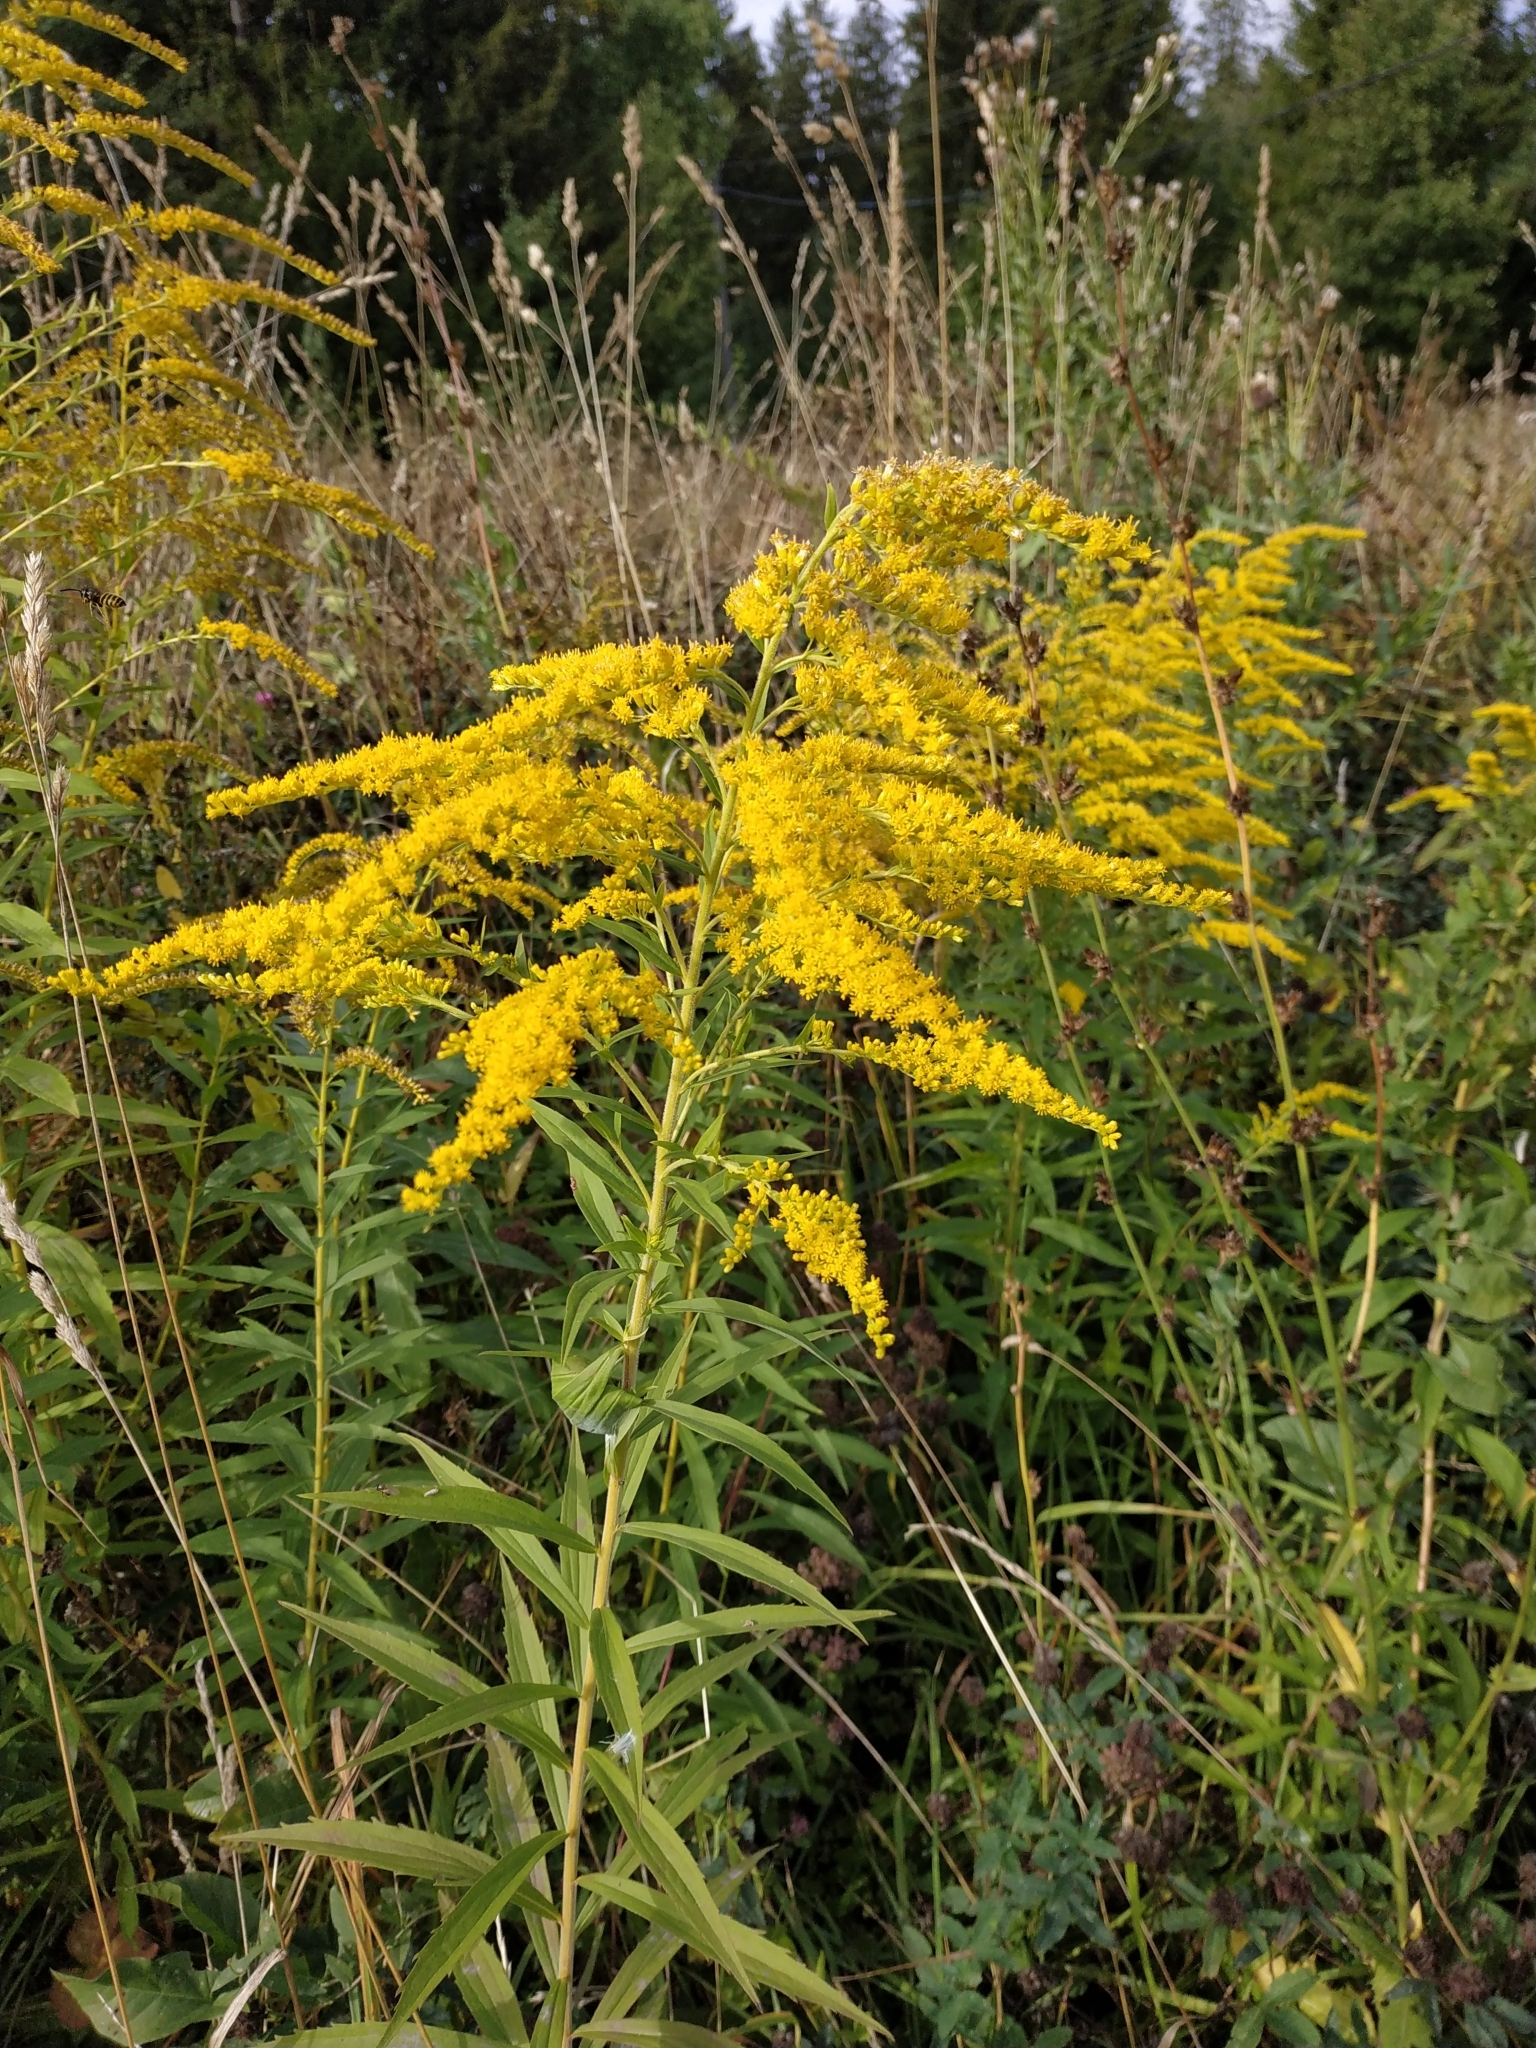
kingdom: Plantae
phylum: Tracheophyta
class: Magnoliopsida
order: Asterales
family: Asteraceae
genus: Solidago
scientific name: Solidago canadensis
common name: Canada goldenrod
